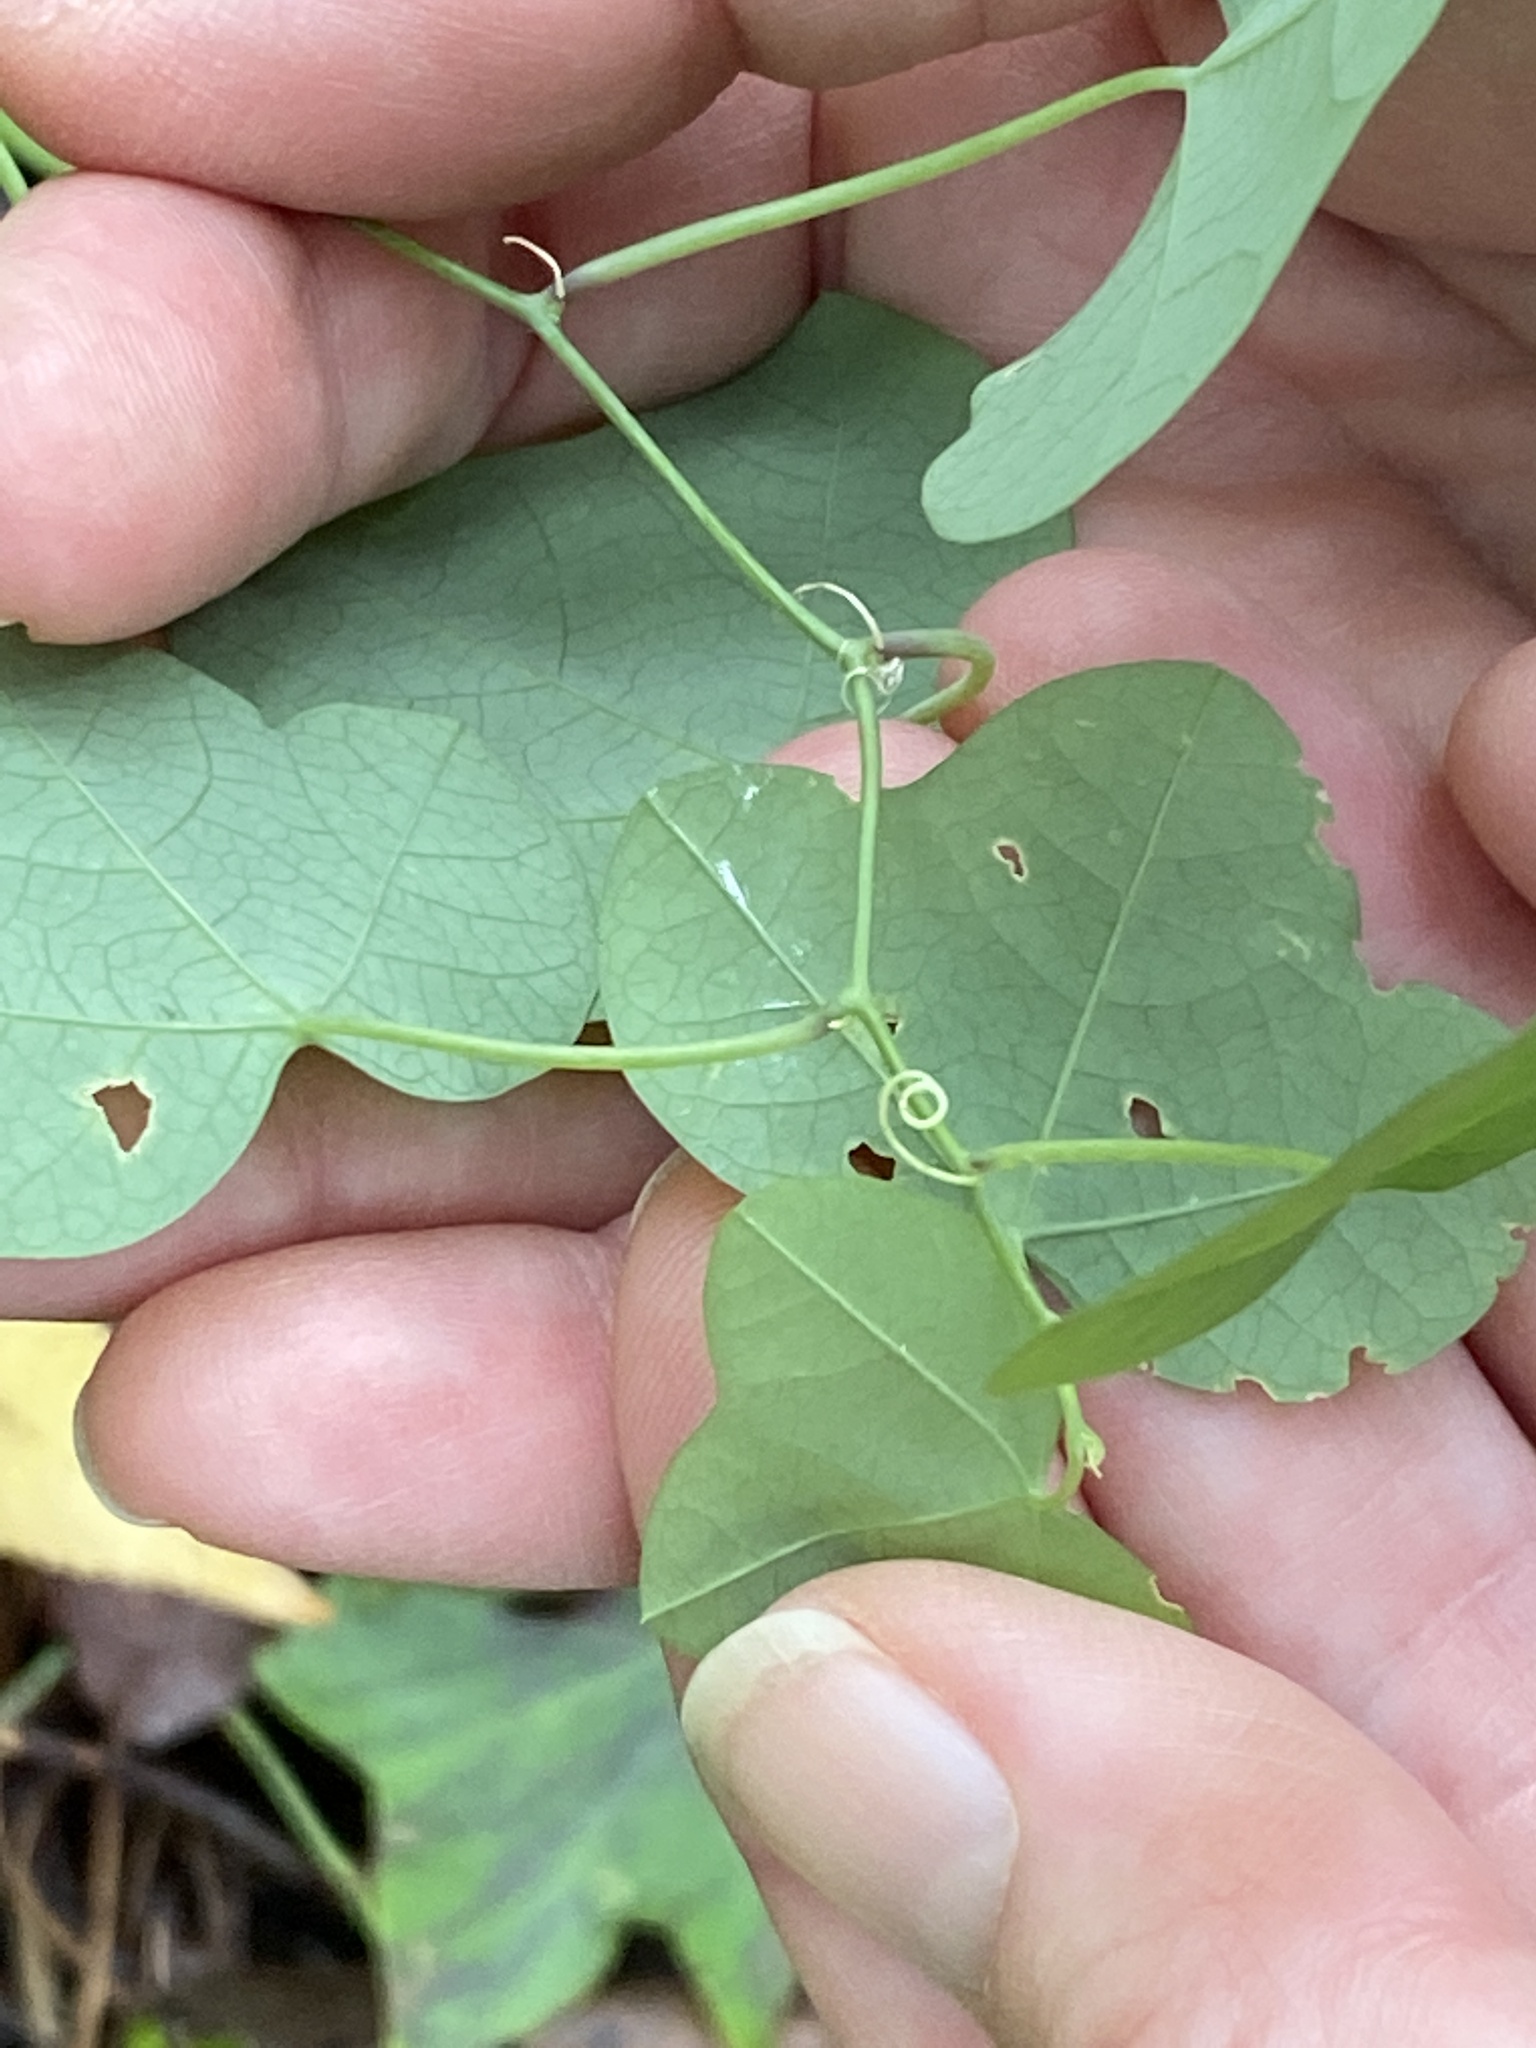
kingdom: Plantae
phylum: Tracheophyta
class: Magnoliopsida
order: Malpighiales
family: Passifloraceae
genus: Passiflora
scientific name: Passiflora lutea
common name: Yellow passionflower
